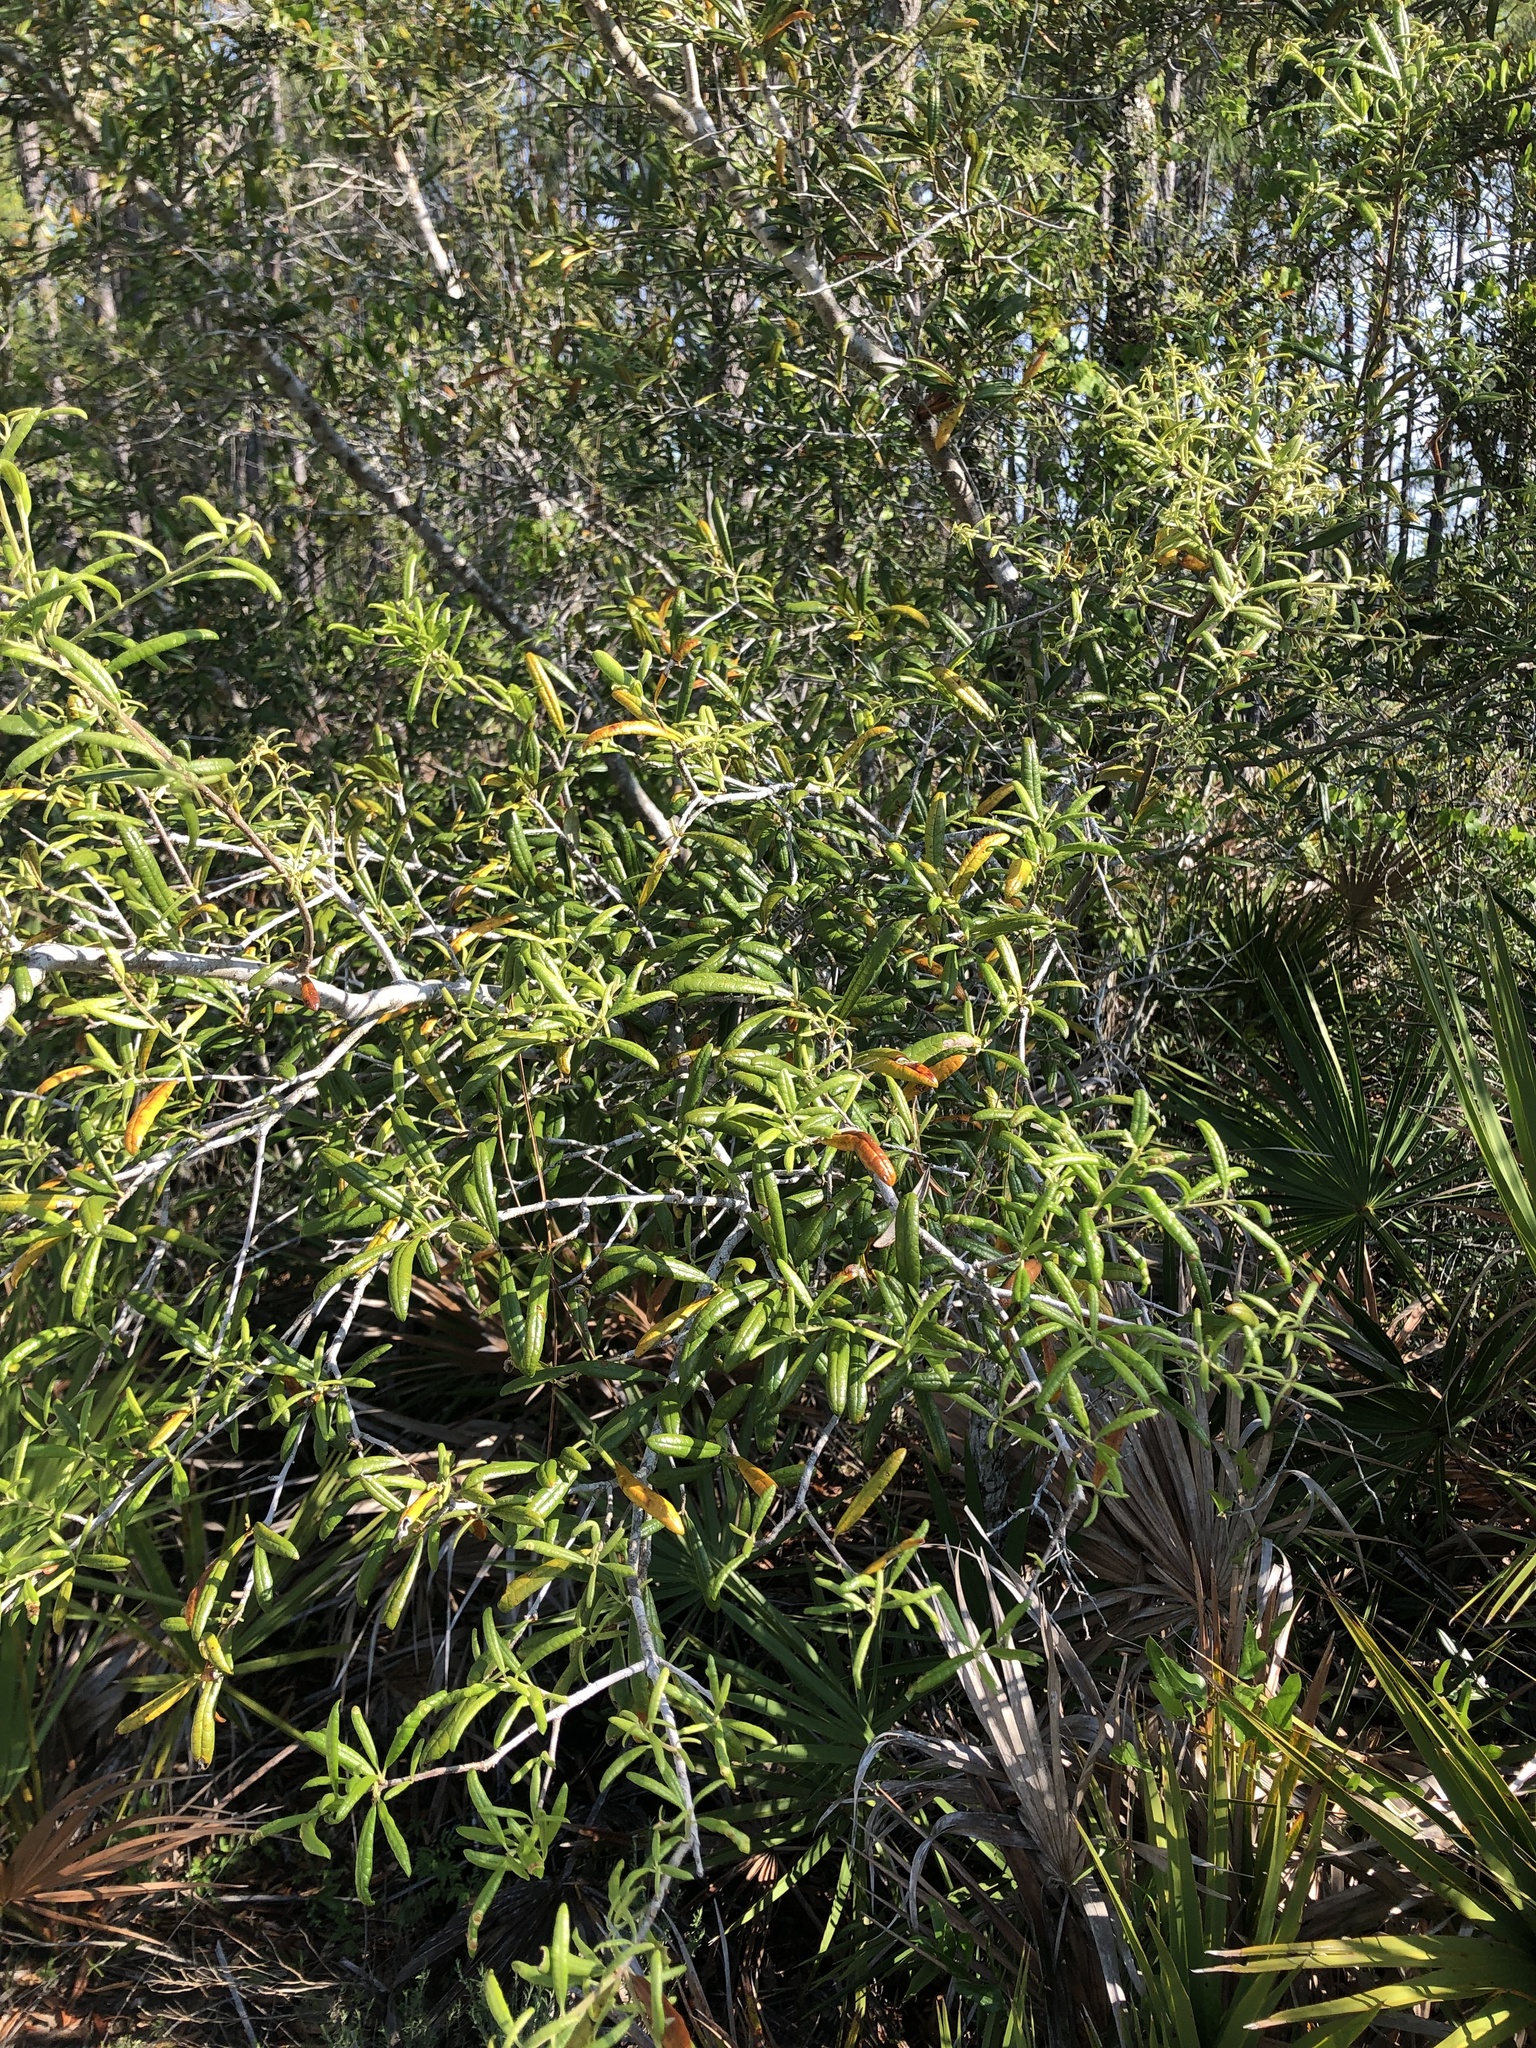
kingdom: Plantae
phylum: Tracheophyta
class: Magnoliopsida
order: Fagales
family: Fagaceae
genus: Quercus
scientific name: Quercus geminata
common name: Sand live oak
